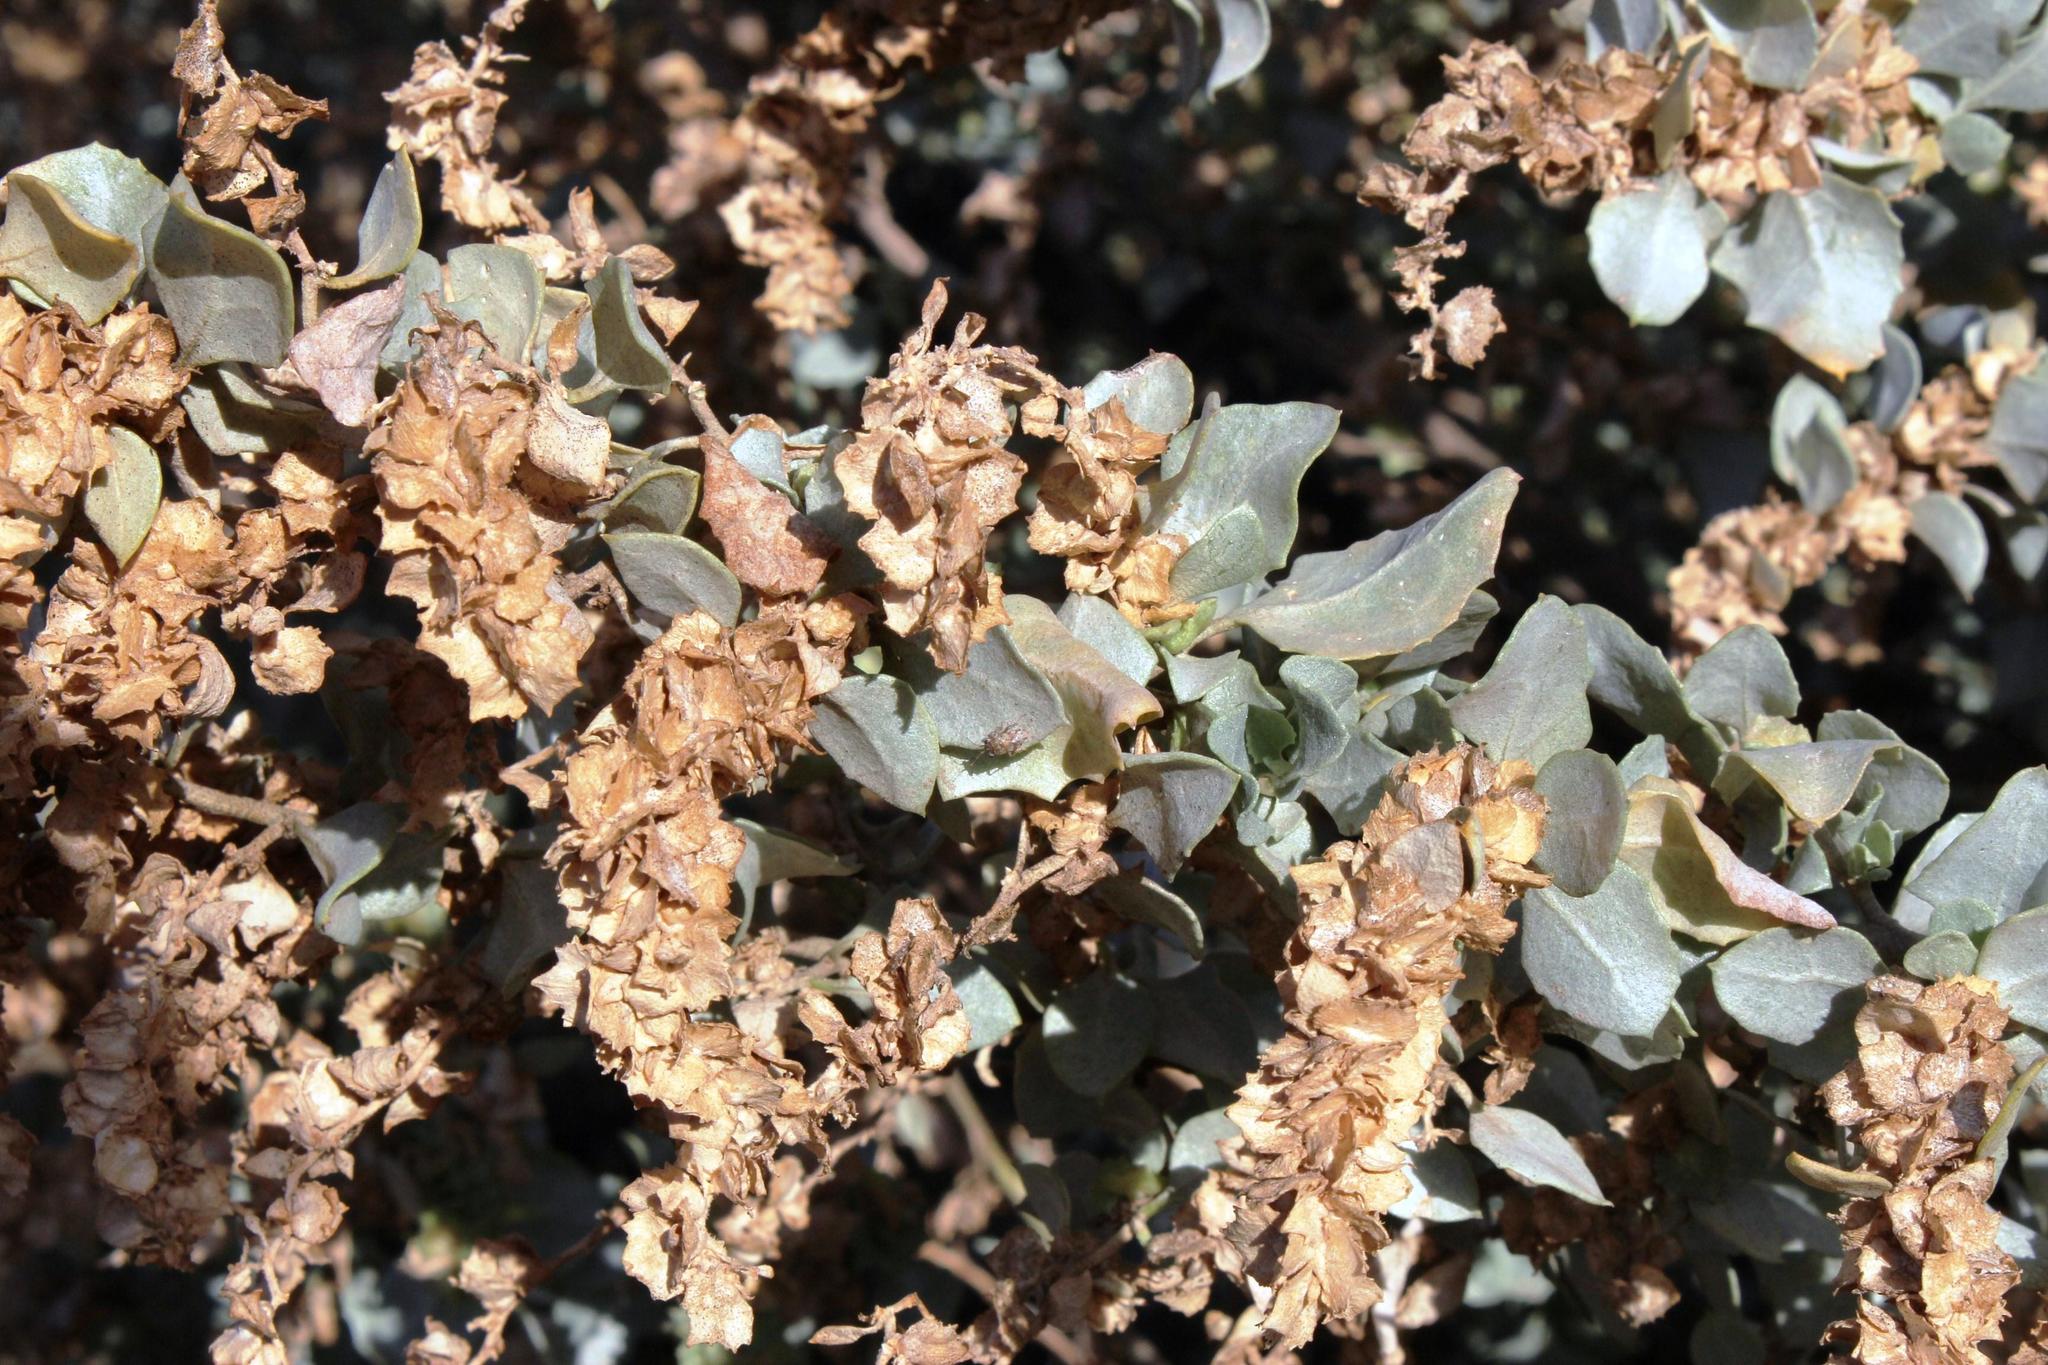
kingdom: Plantae
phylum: Tracheophyta
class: Magnoliopsida
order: Caryophyllales
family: Amaranthaceae
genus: Atriplex
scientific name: Atriplex nummularia
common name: Bluegreen saltbush
